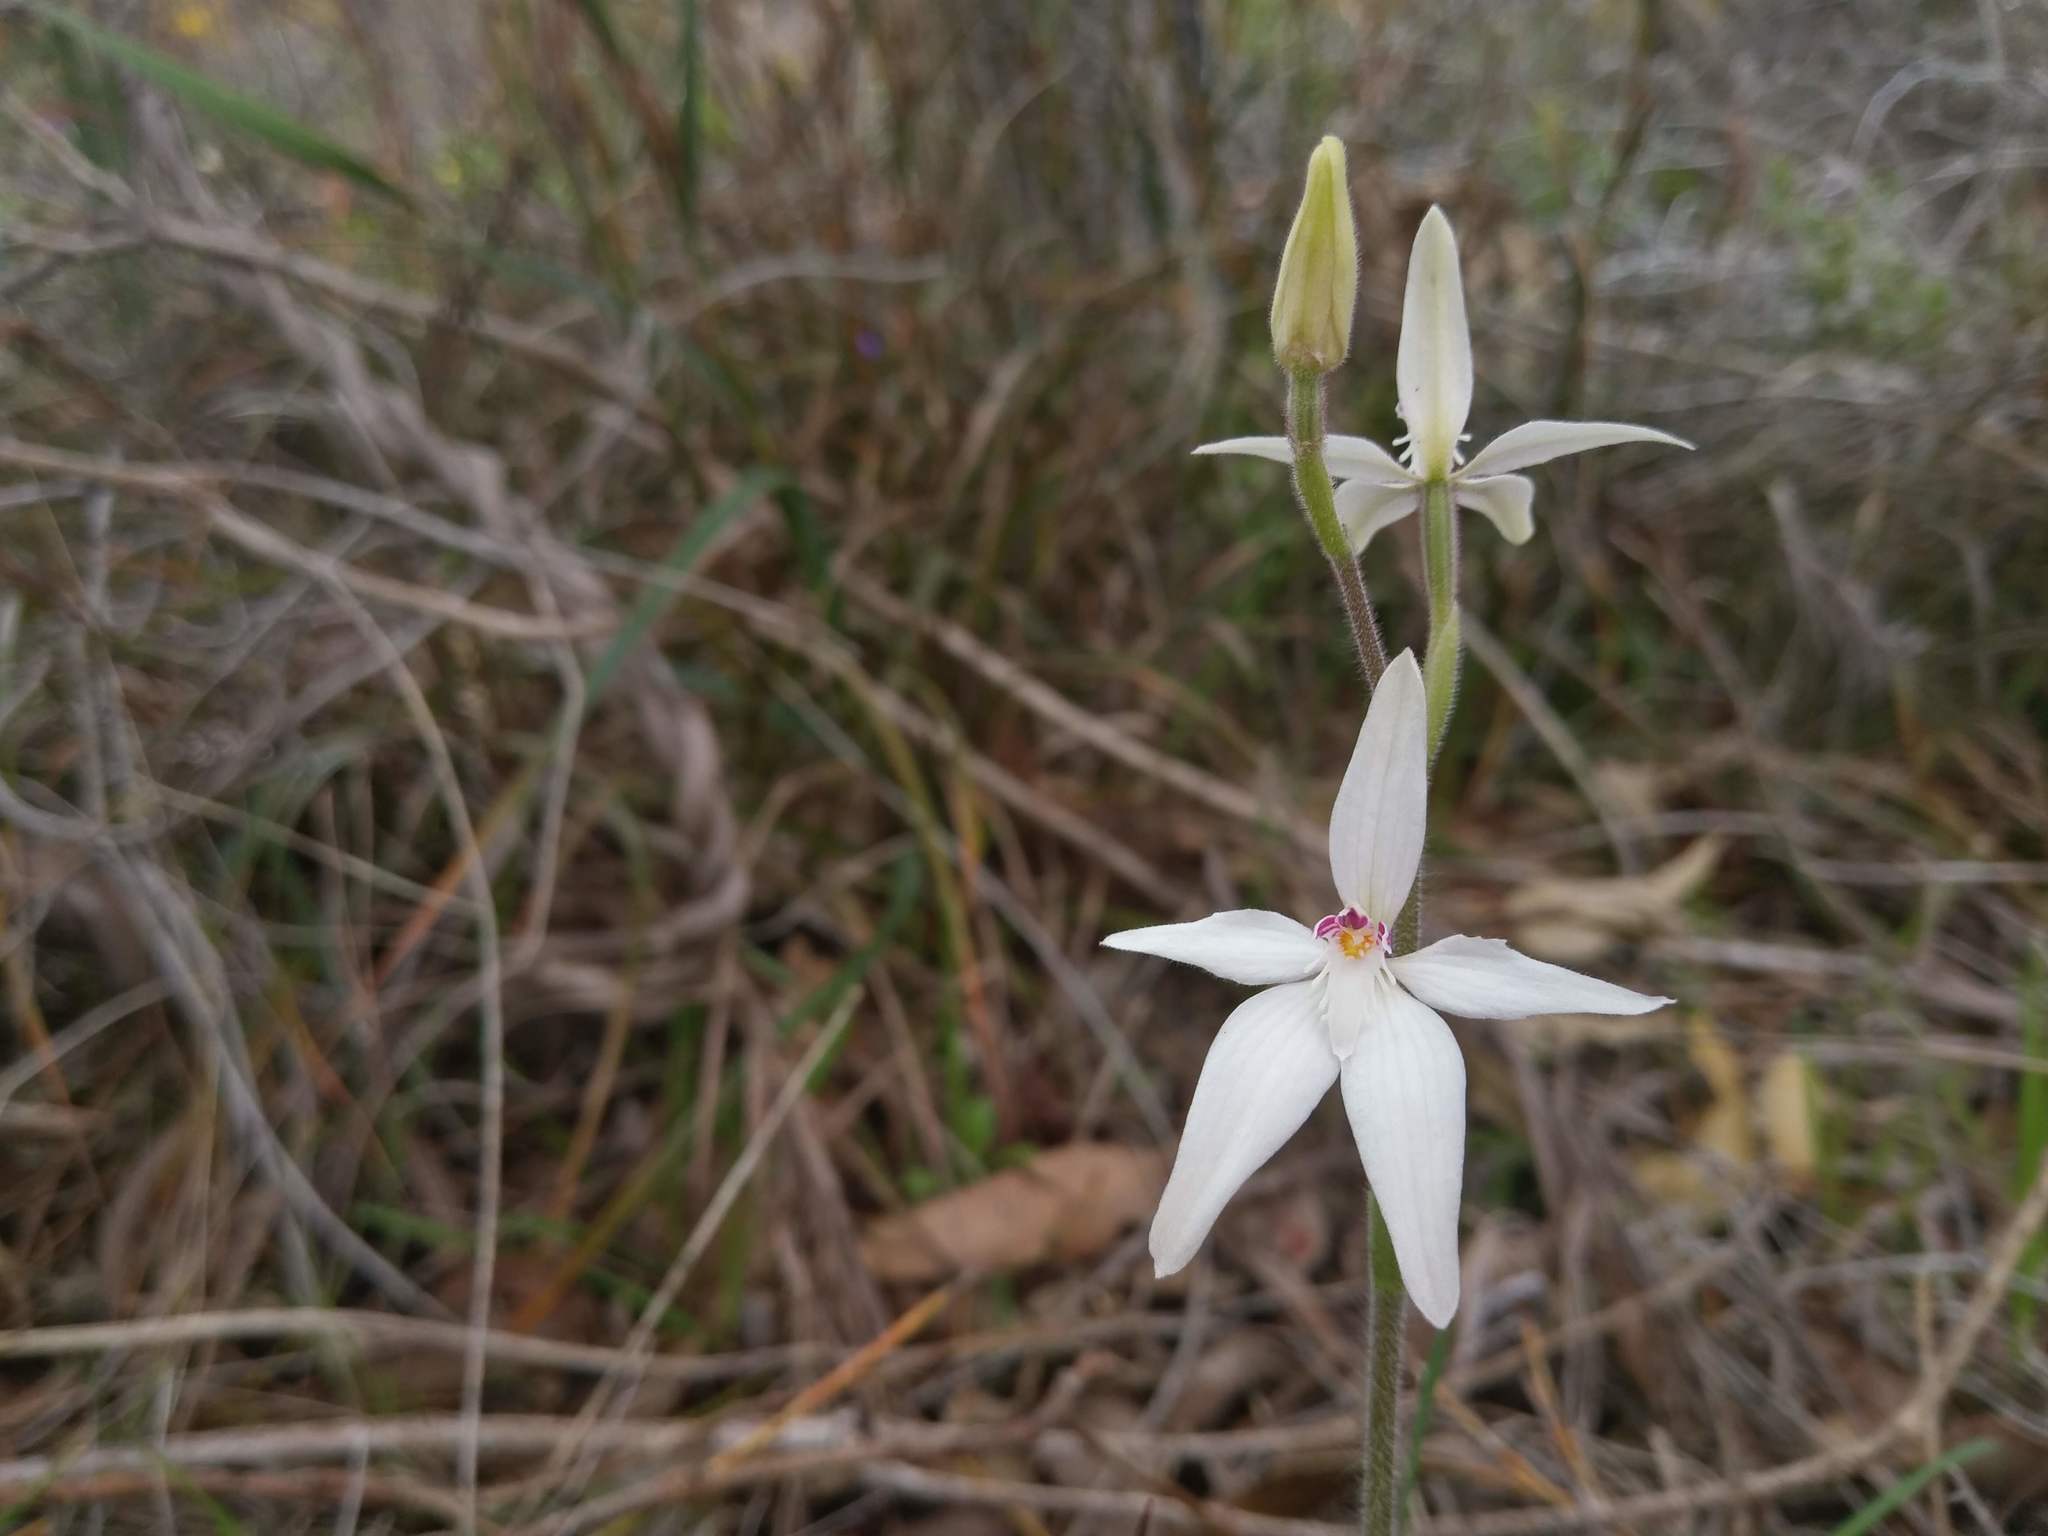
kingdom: Plantae
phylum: Tracheophyta
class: Liliopsida
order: Asparagales
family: Orchidaceae
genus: Caladenia
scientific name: Caladenia latifolia
